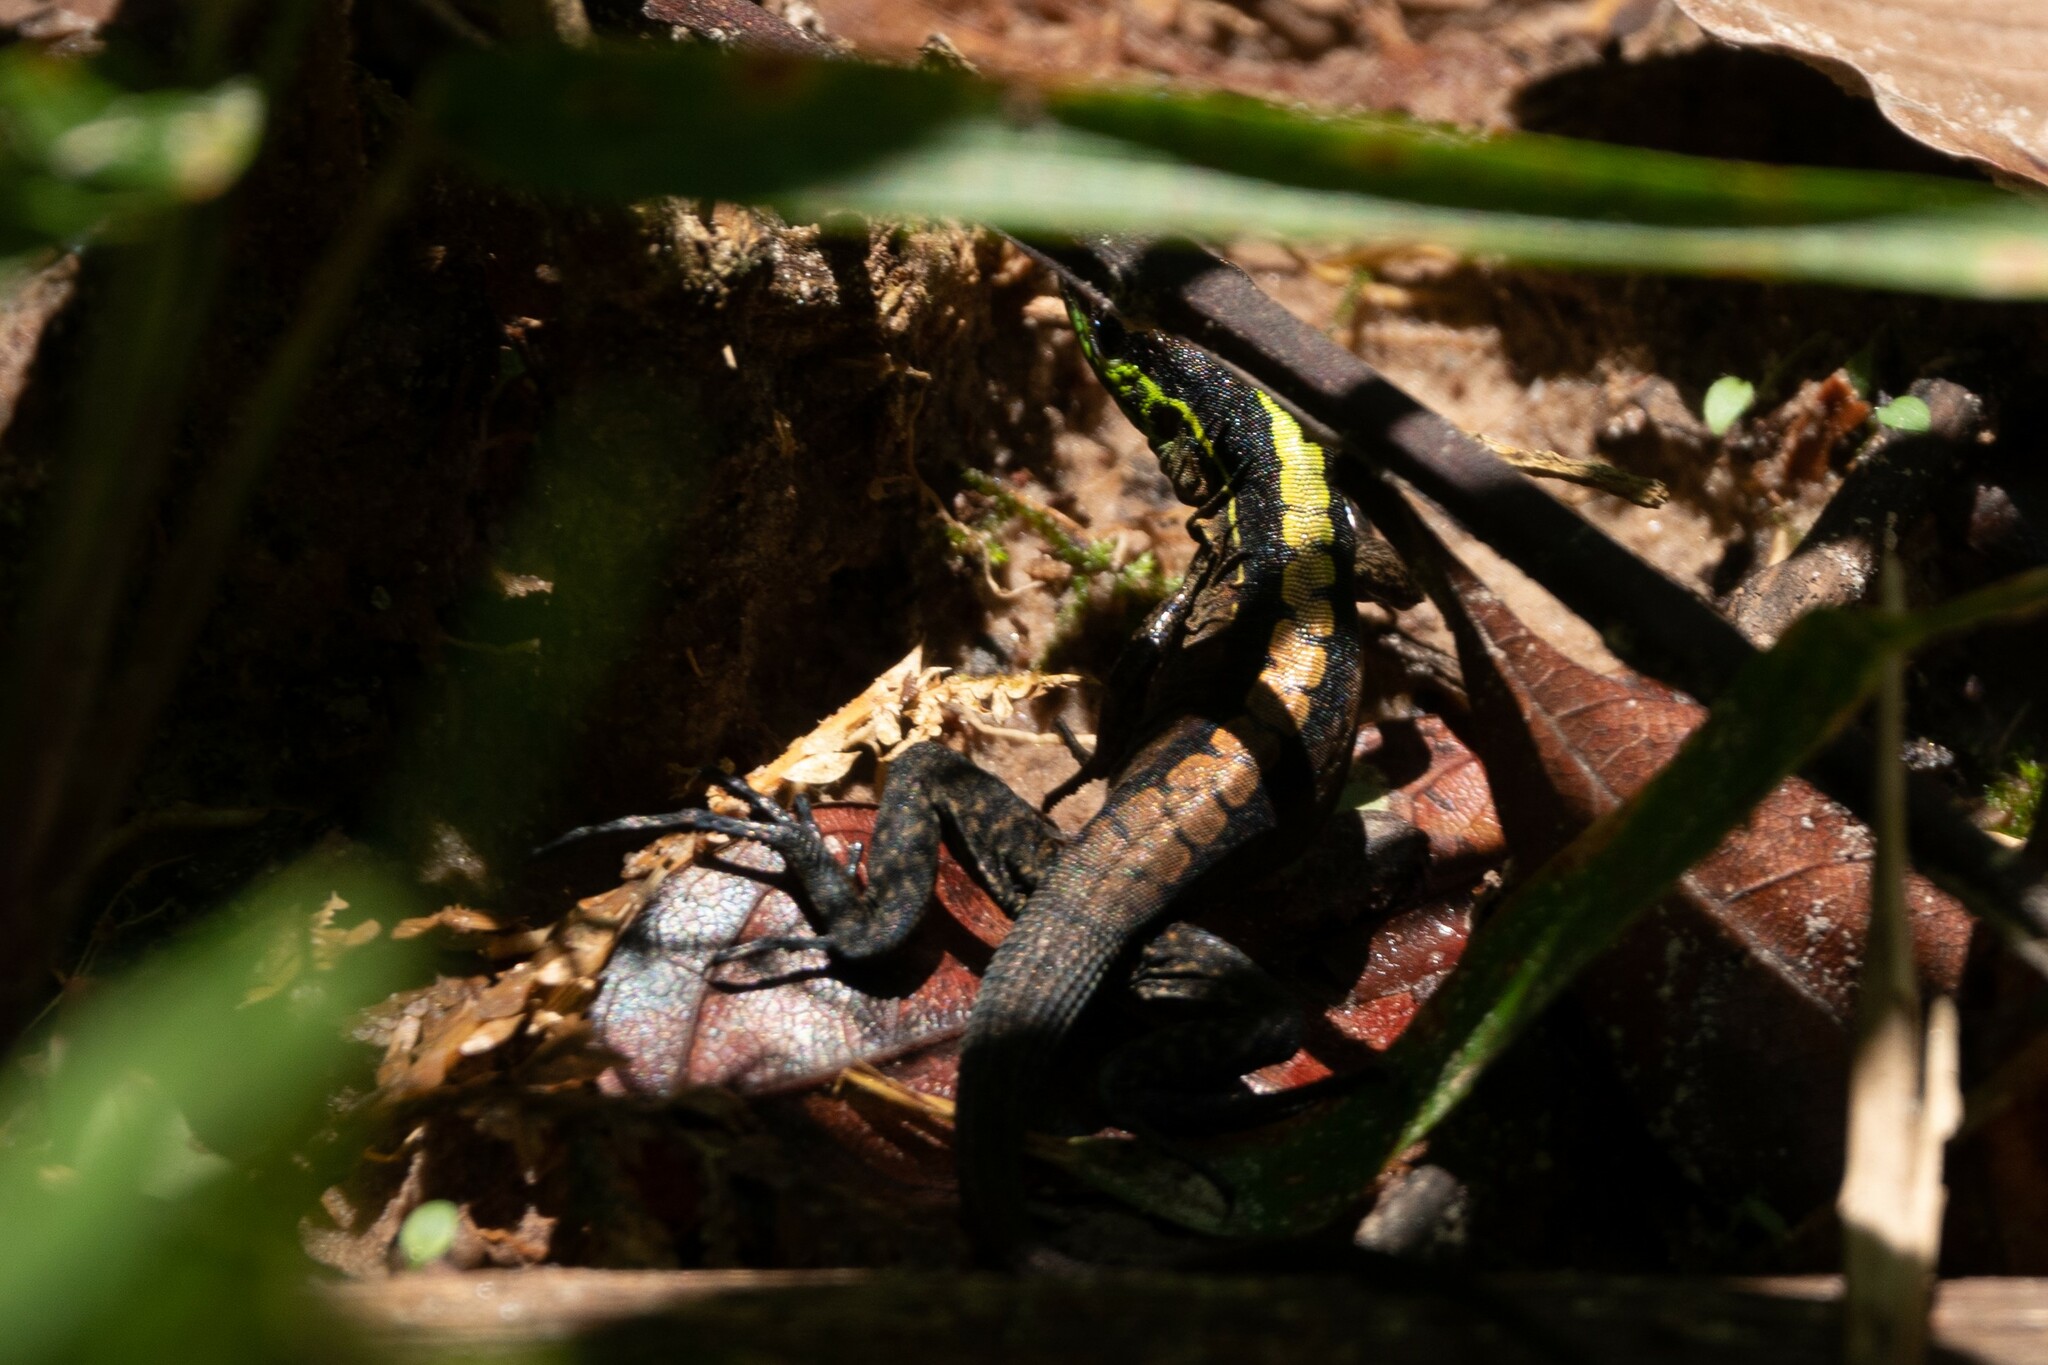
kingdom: Animalia
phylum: Chordata
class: Squamata
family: Teiidae
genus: Kentropyx
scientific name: Kentropyx pelviceps
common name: Forest whiptail
